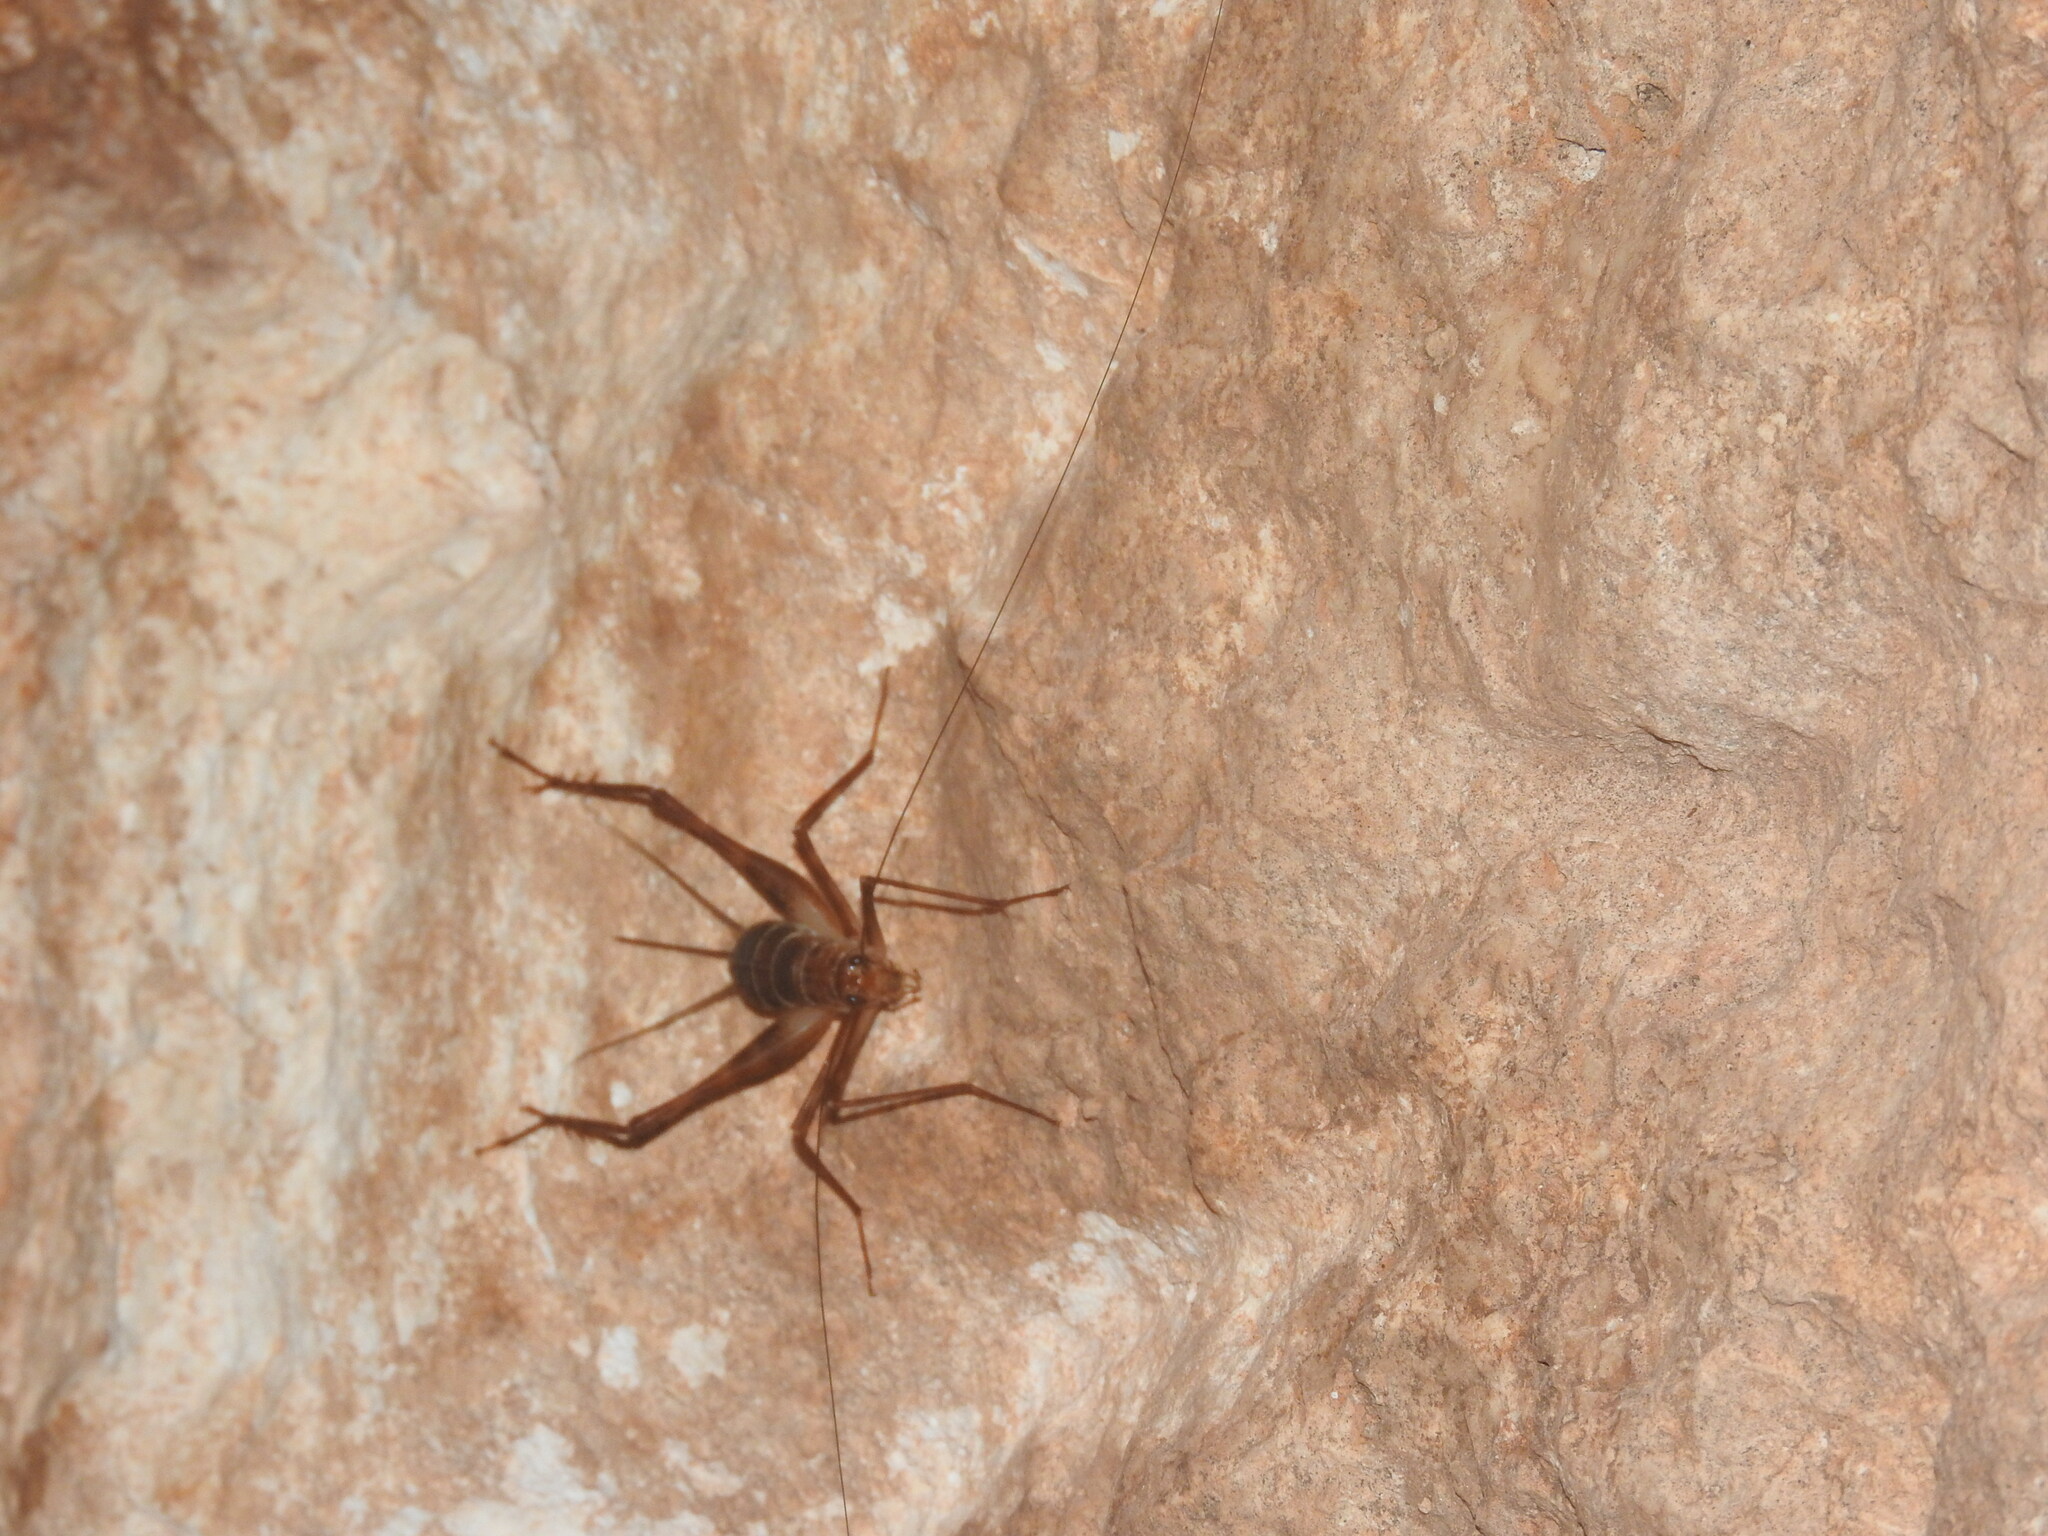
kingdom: Animalia
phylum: Arthropoda
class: Insecta
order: Orthoptera
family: Phalangopsidae
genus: Mayagryllus
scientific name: Mayagryllus yucatanus
